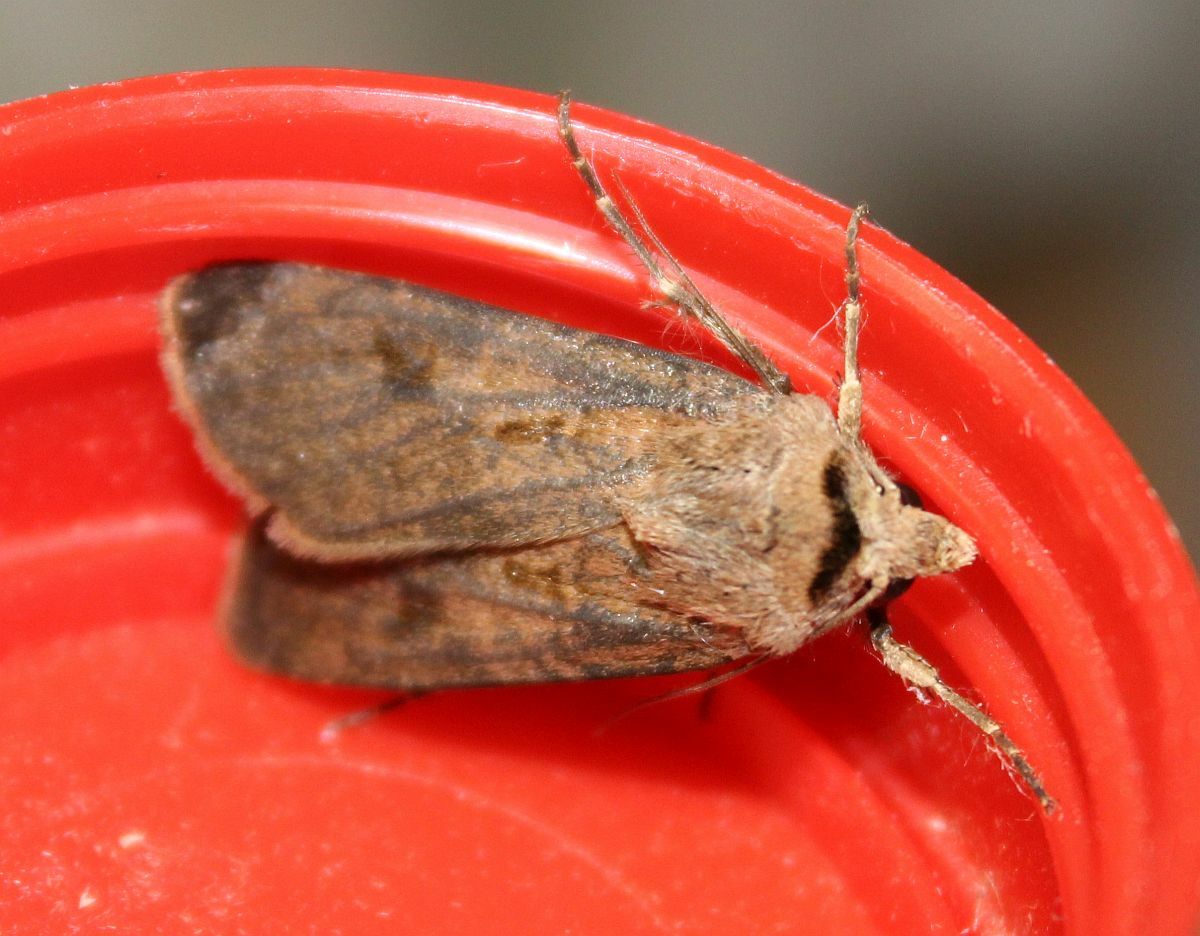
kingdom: Animalia
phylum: Arthropoda
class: Insecta
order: Lepidoptera
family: Noctuidae
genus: Agrotis
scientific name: Agrotis exclamationis
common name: Heart and dart
